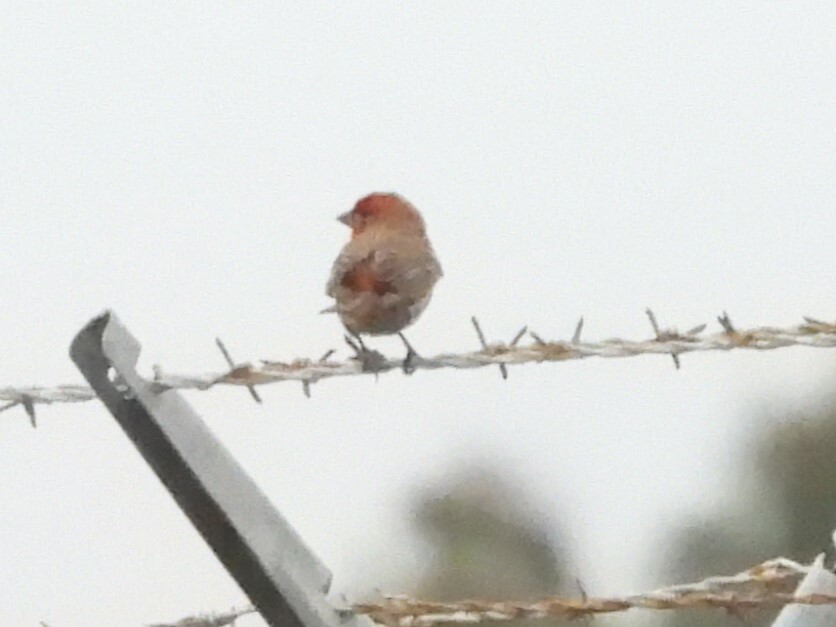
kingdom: Animalia
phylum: Chordata
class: Aves
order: Passeriformes
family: Fringillidae
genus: Haemorhous
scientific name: Haemorhous mexicanus
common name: House finch
